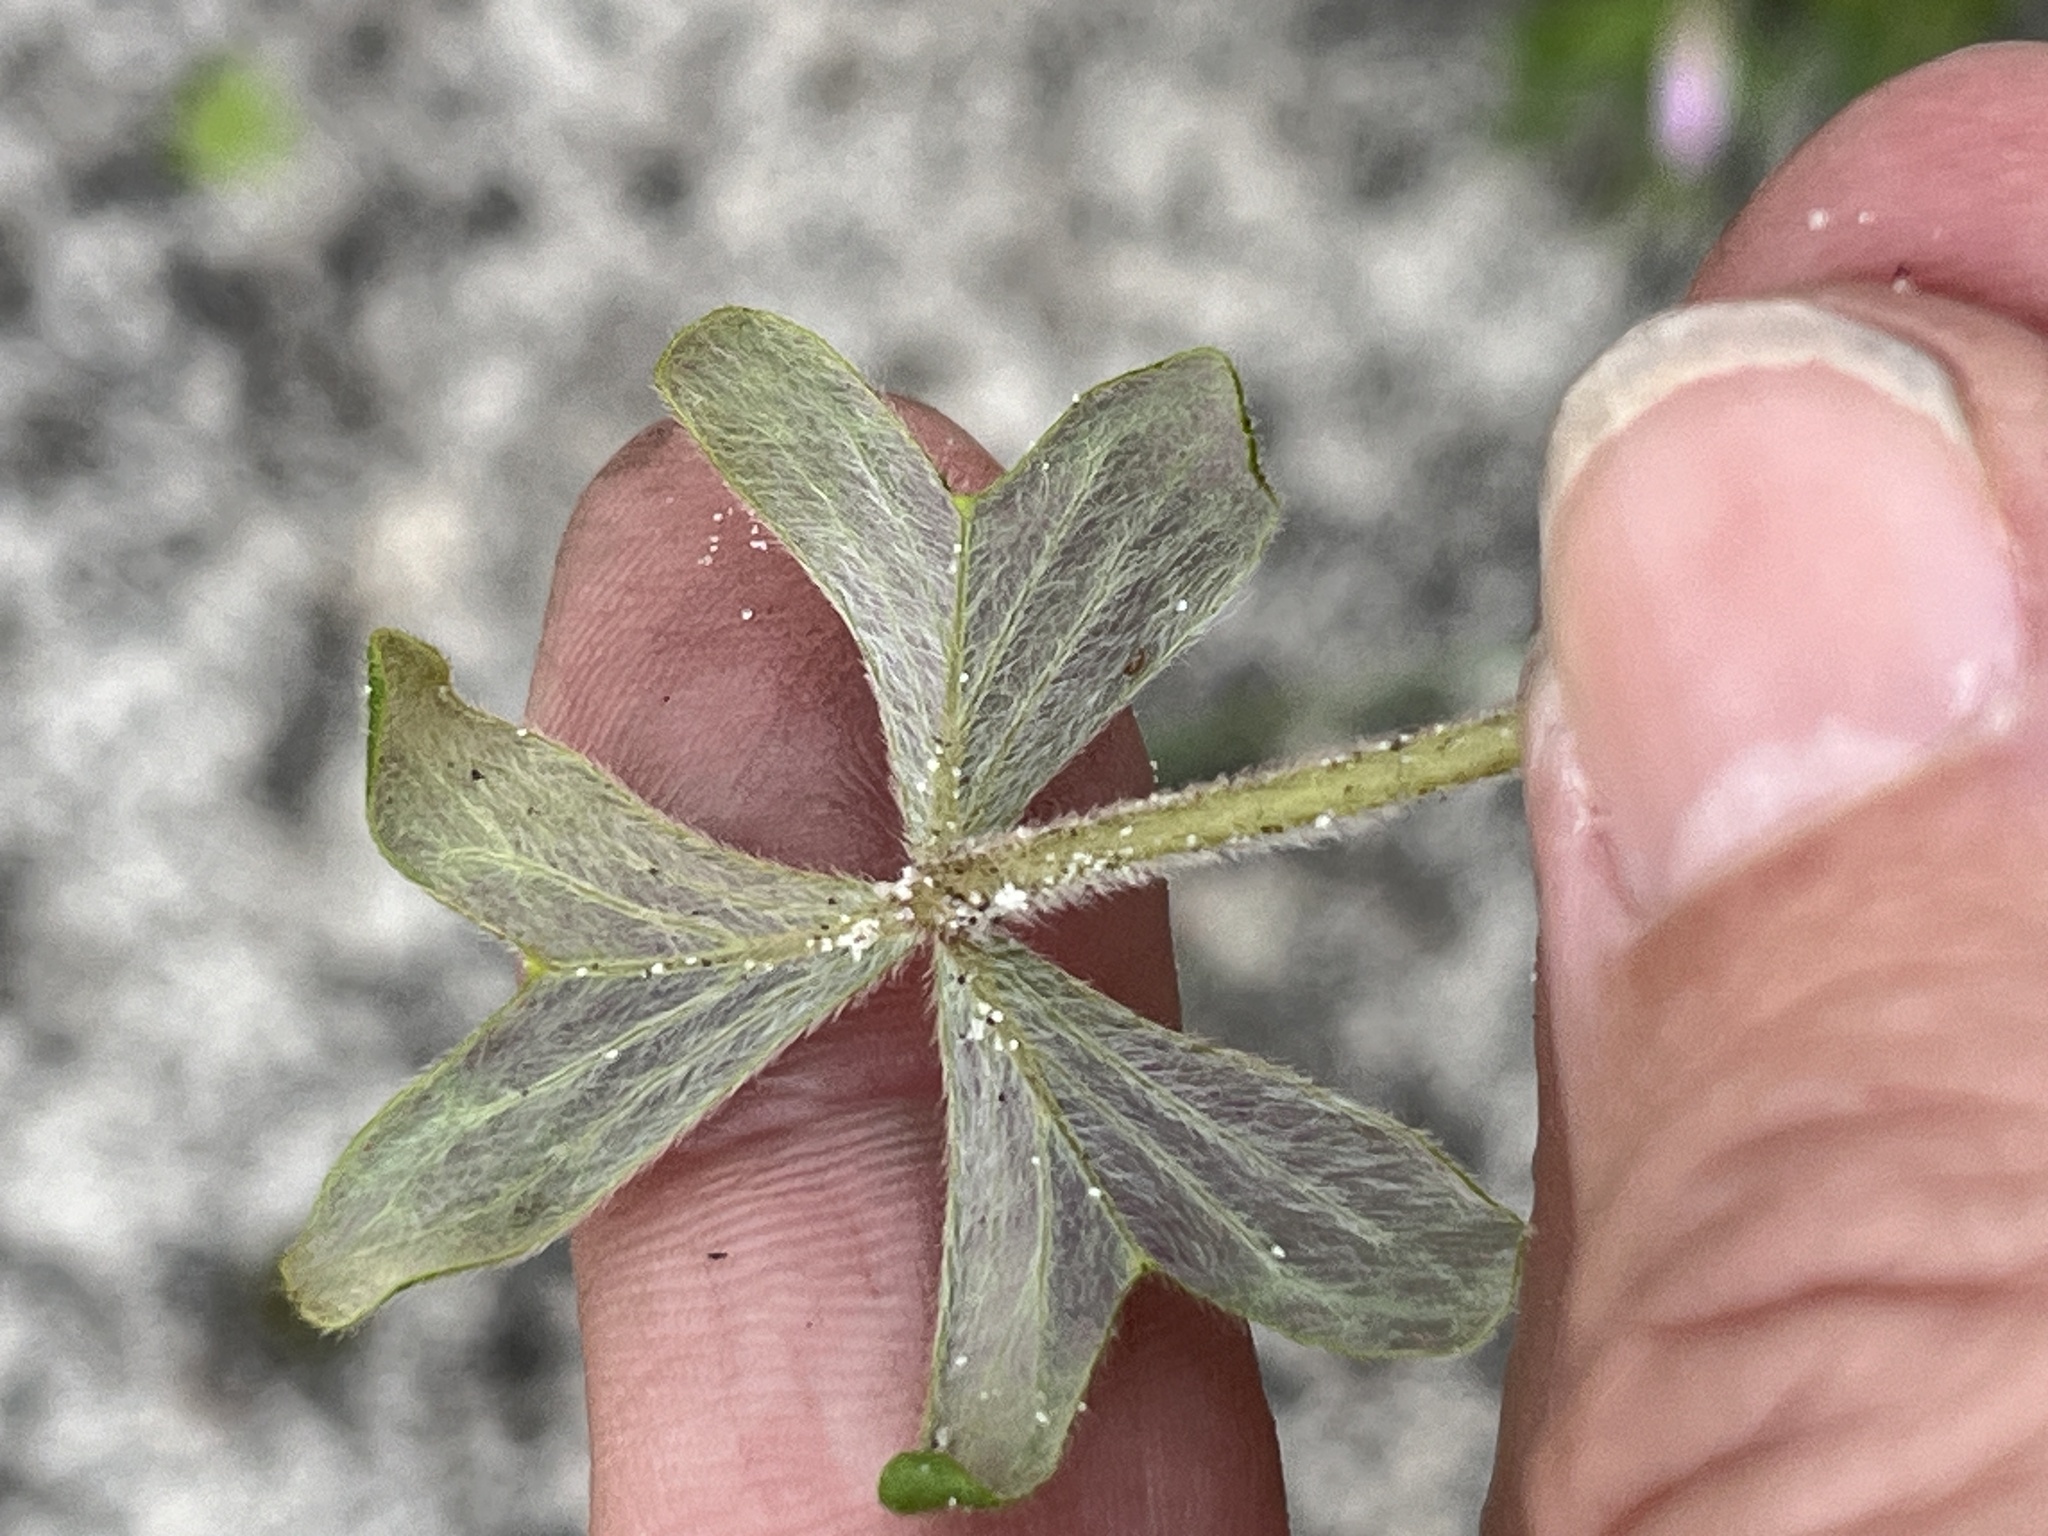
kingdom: Plantae
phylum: Tracheophyta
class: Magnoliopsida
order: Oxalidales
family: Oxalidaceae
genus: Oxalis
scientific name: Oxalis truncatula
